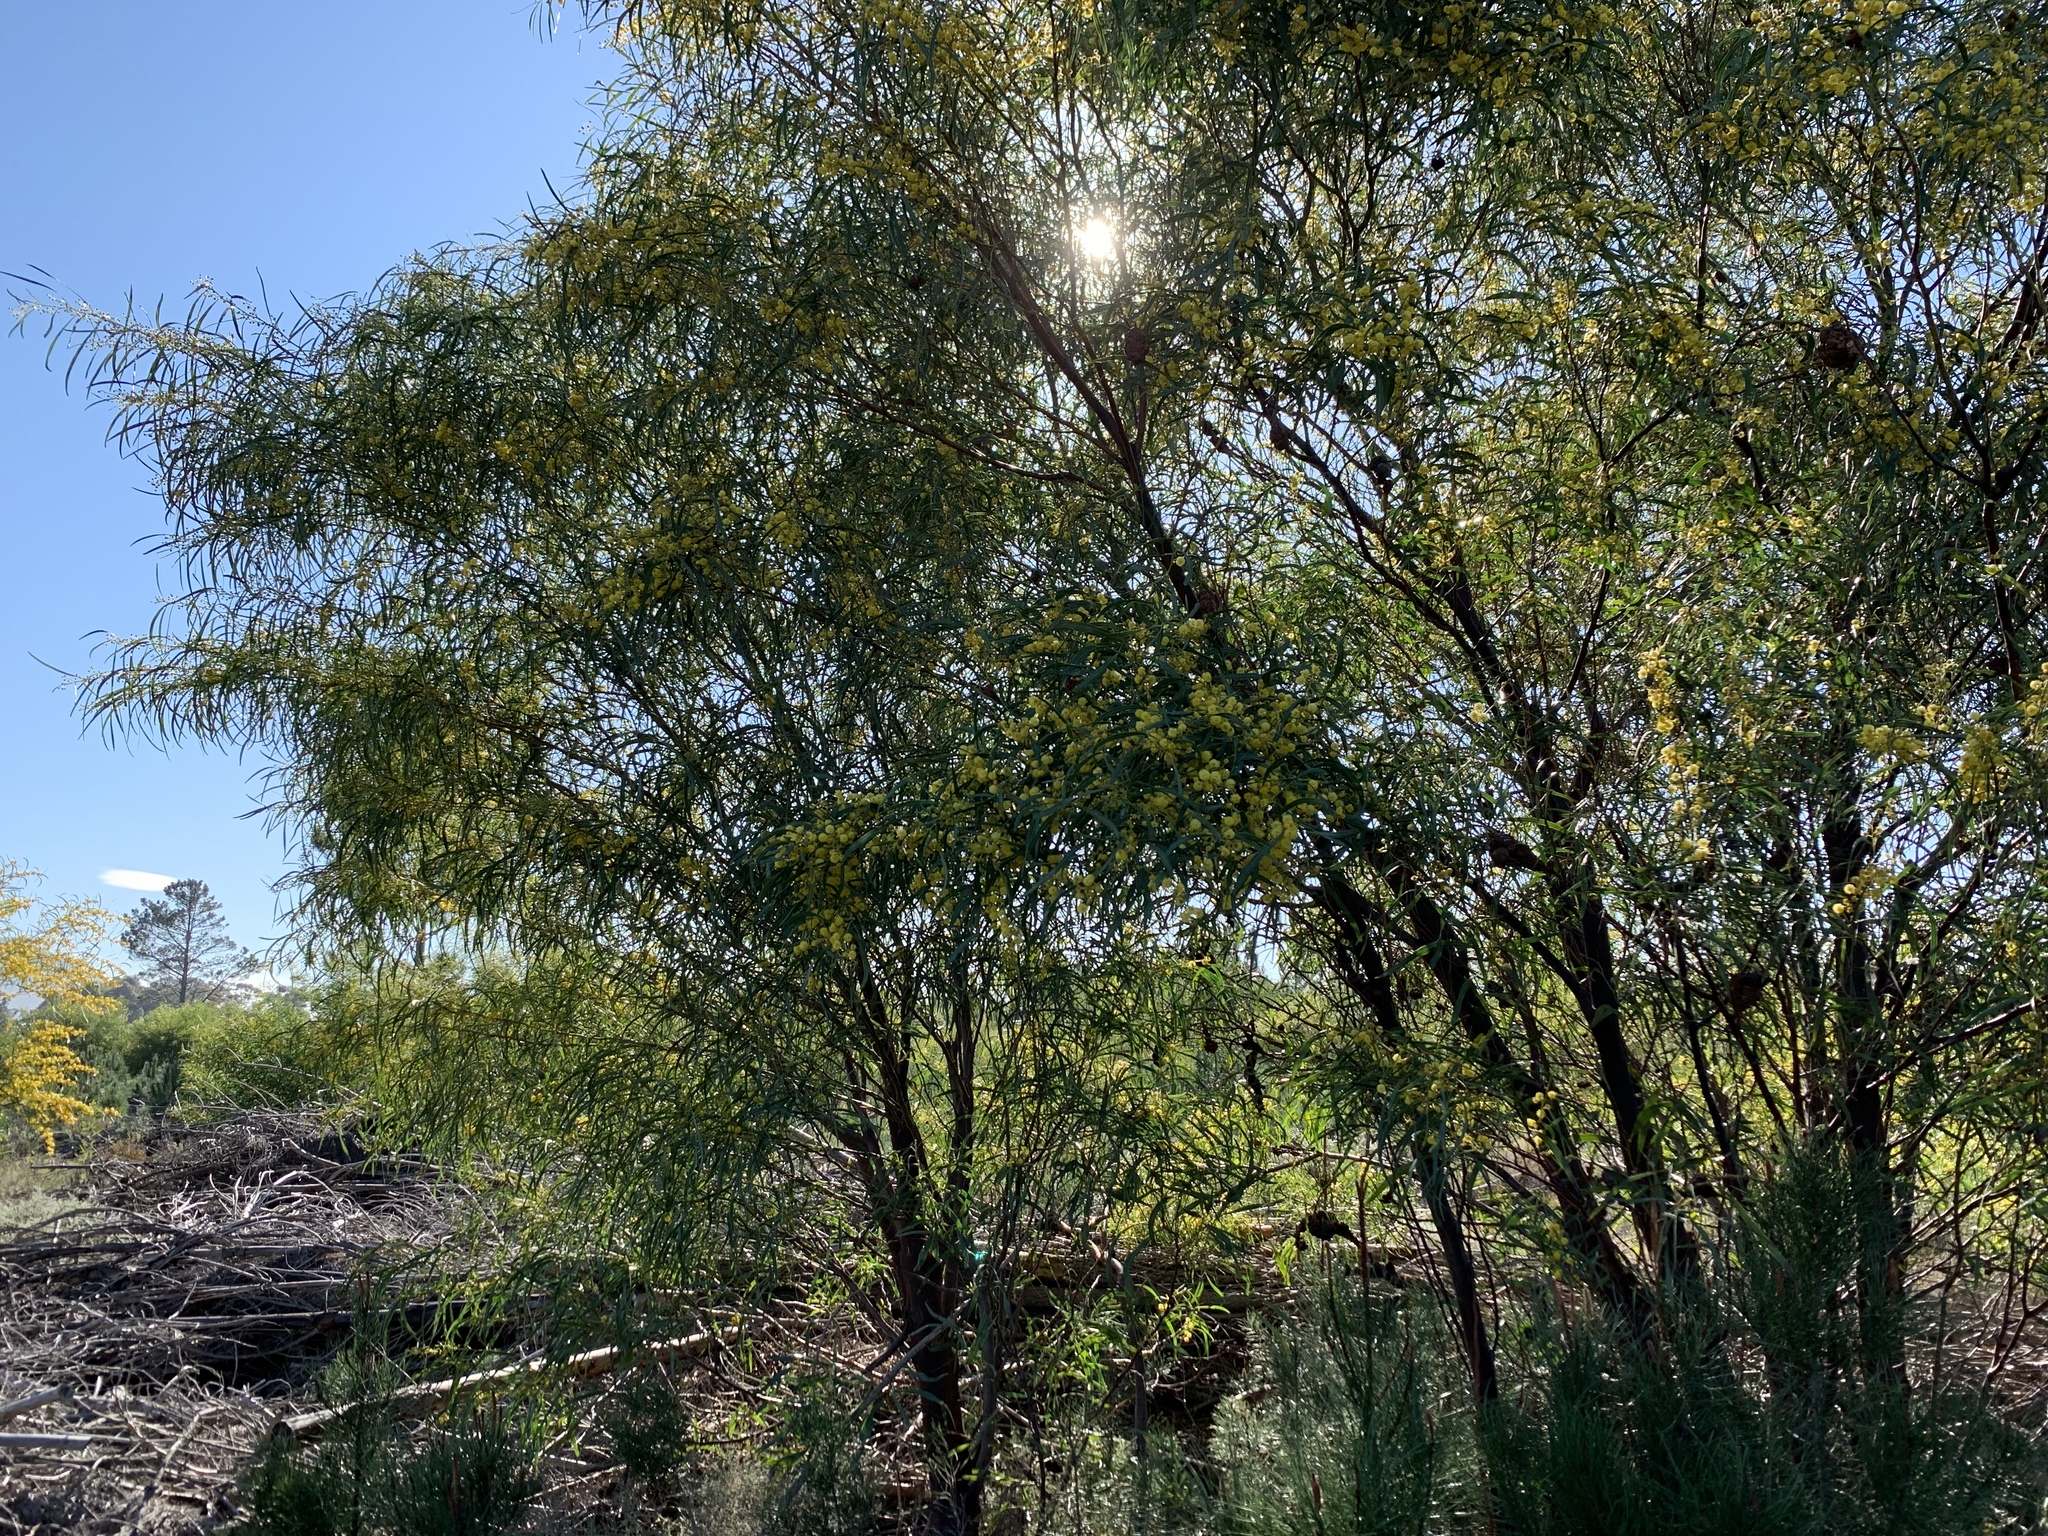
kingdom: Plantae
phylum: Tracheophyta
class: Magnoliopsida
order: Fabales
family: Fabaceae
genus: Acacia
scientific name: Acacia saligna
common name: Orange wattle
